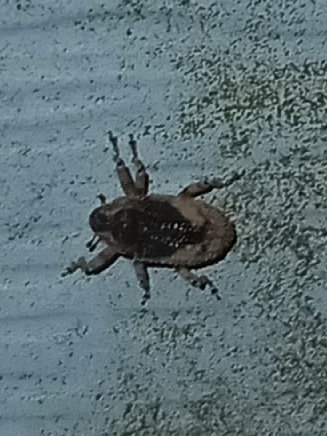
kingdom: Animalia
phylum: Arthropoda
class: Insecta
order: Coleoptera
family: Curculionidae
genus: Cophes
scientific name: Cophes fallax
